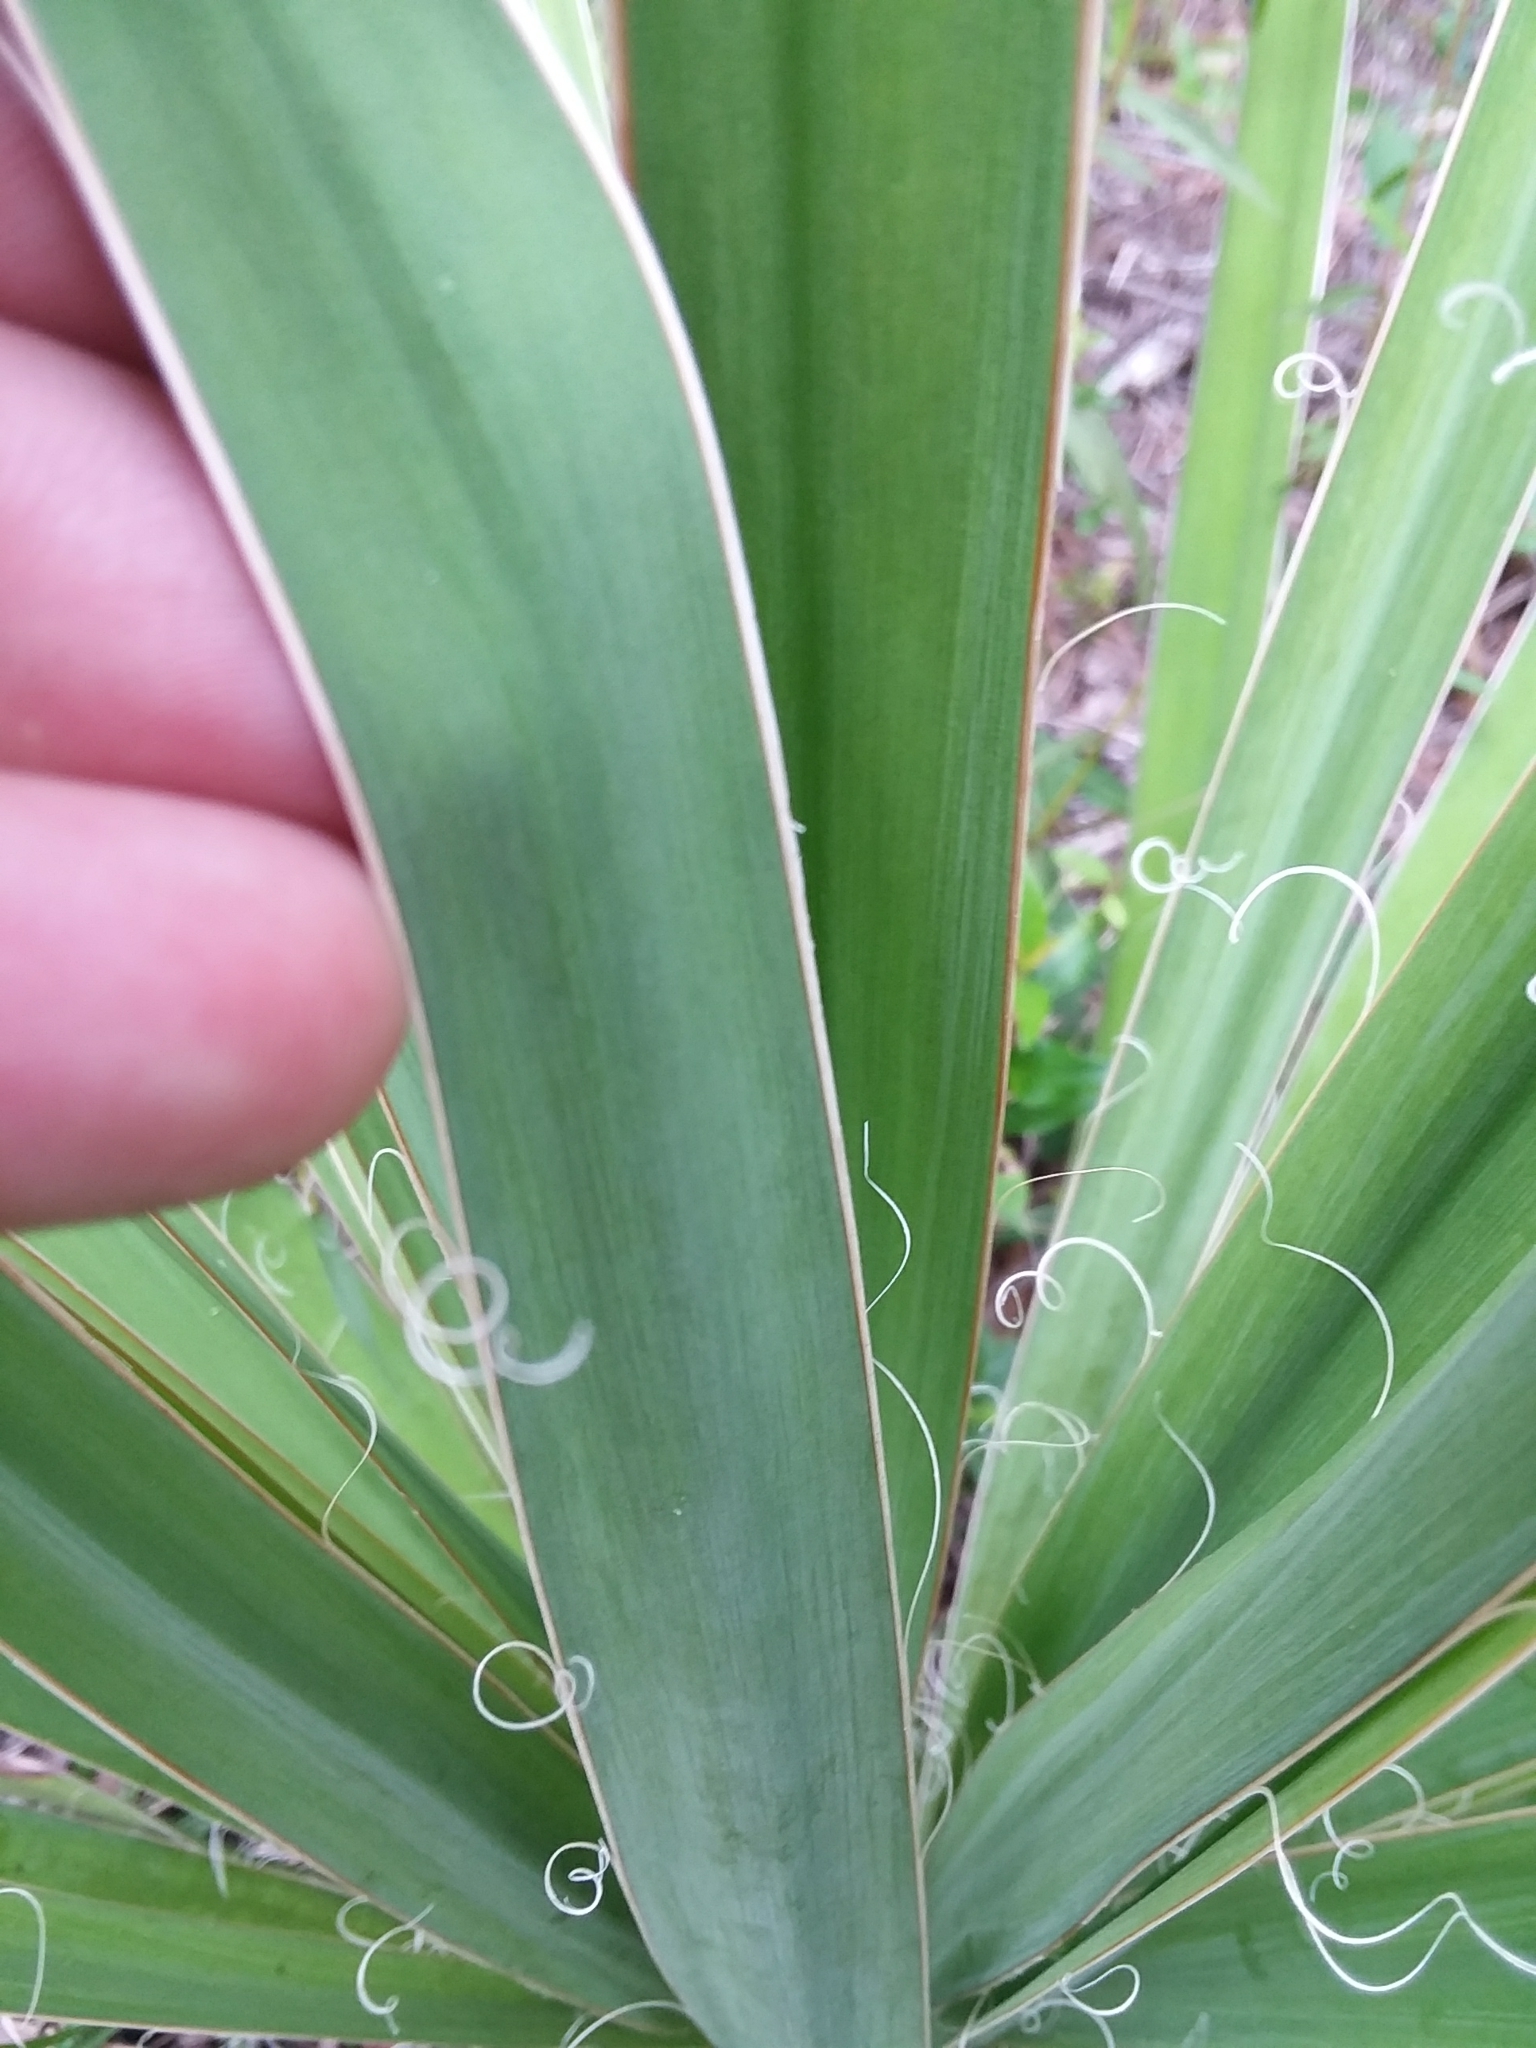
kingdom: Plantae
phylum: Tracheophyta
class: Liliopsida
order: Asparagales
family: Asparagaceae
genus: Yucca
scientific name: Yucca flaccida
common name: Adam's-needle
